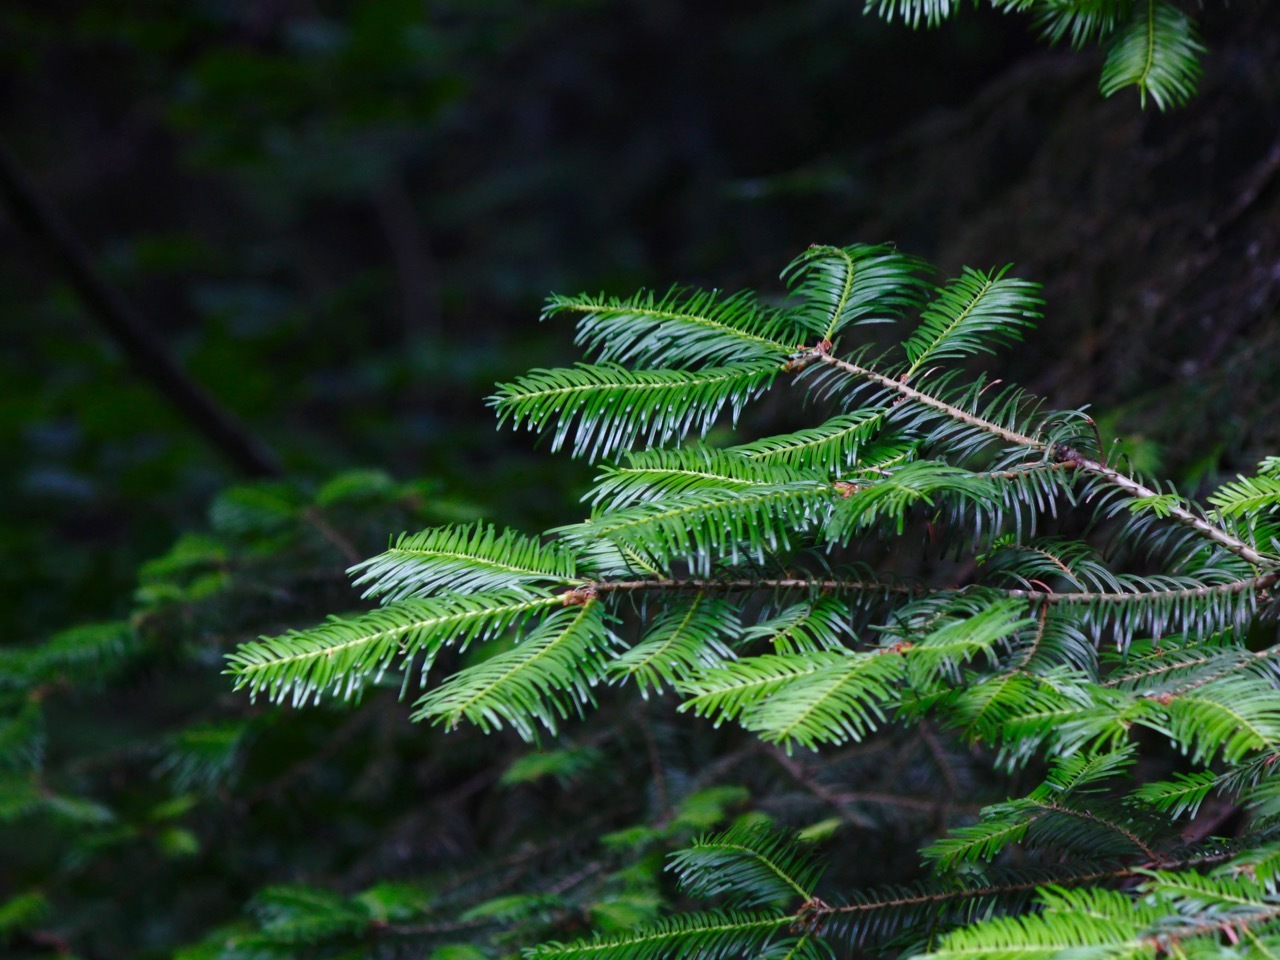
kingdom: Plantae
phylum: Tracheophyta
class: Pinopsida
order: Pinales
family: Pinaceae
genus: Abies
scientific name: Abies grandis
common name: Giant fir
